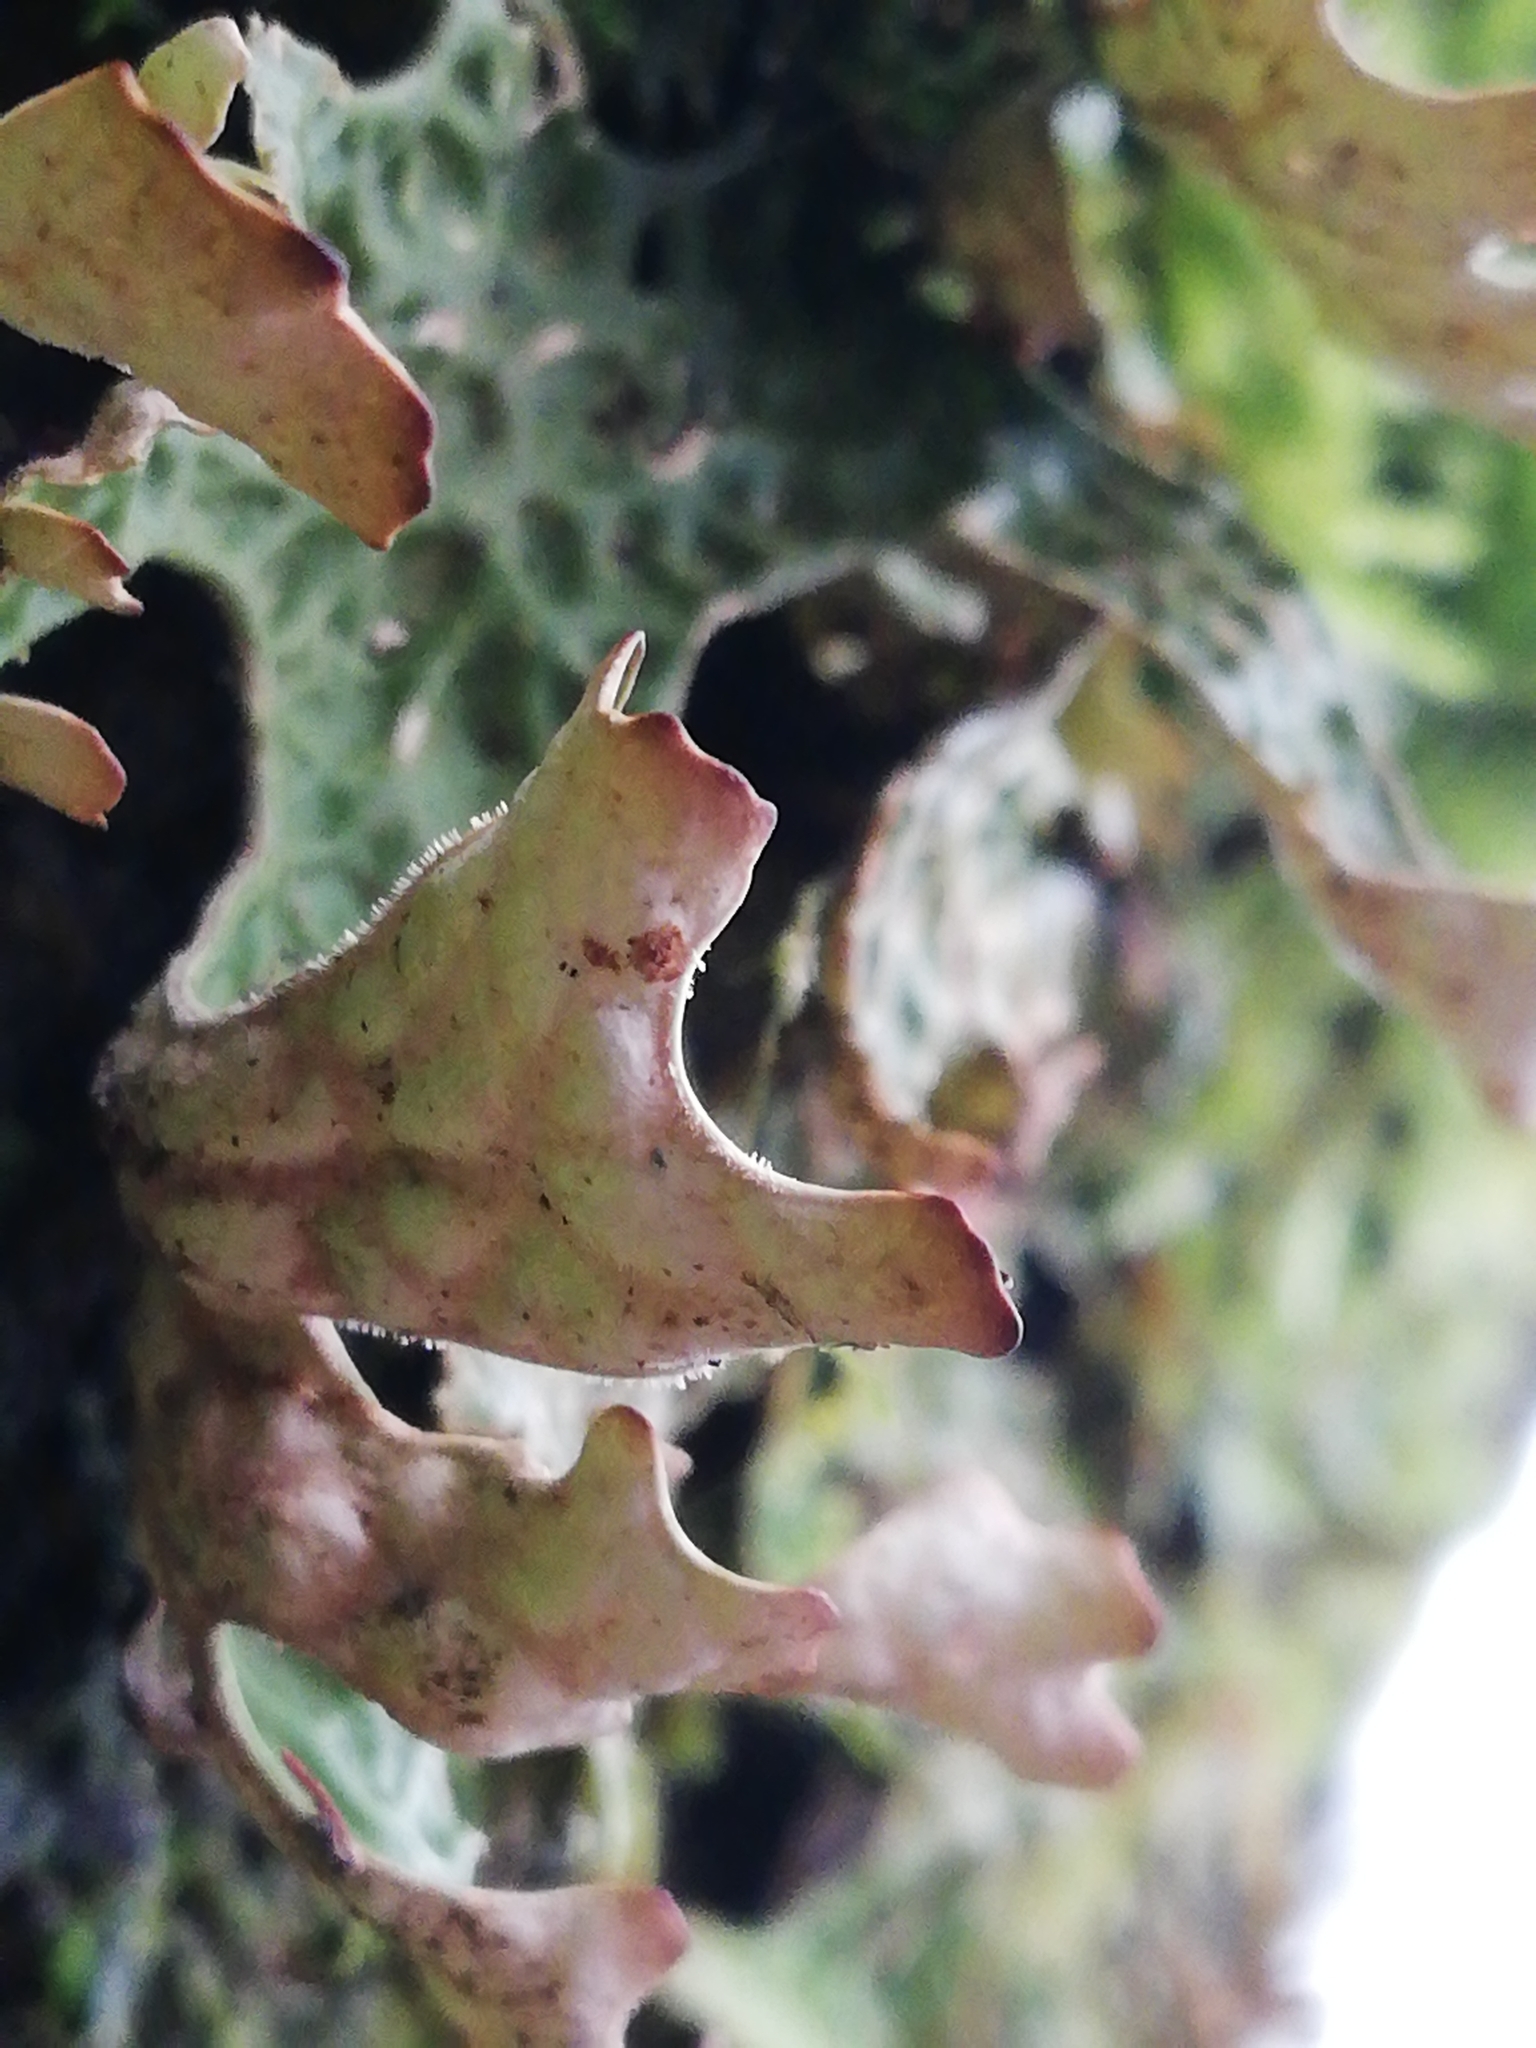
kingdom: Fungi
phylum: Ascomycota
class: Lecanoromycetes
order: Peltigerales
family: Lobariaceae
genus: Lobaria
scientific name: Lobaria pulmonaria
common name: Lungwort
